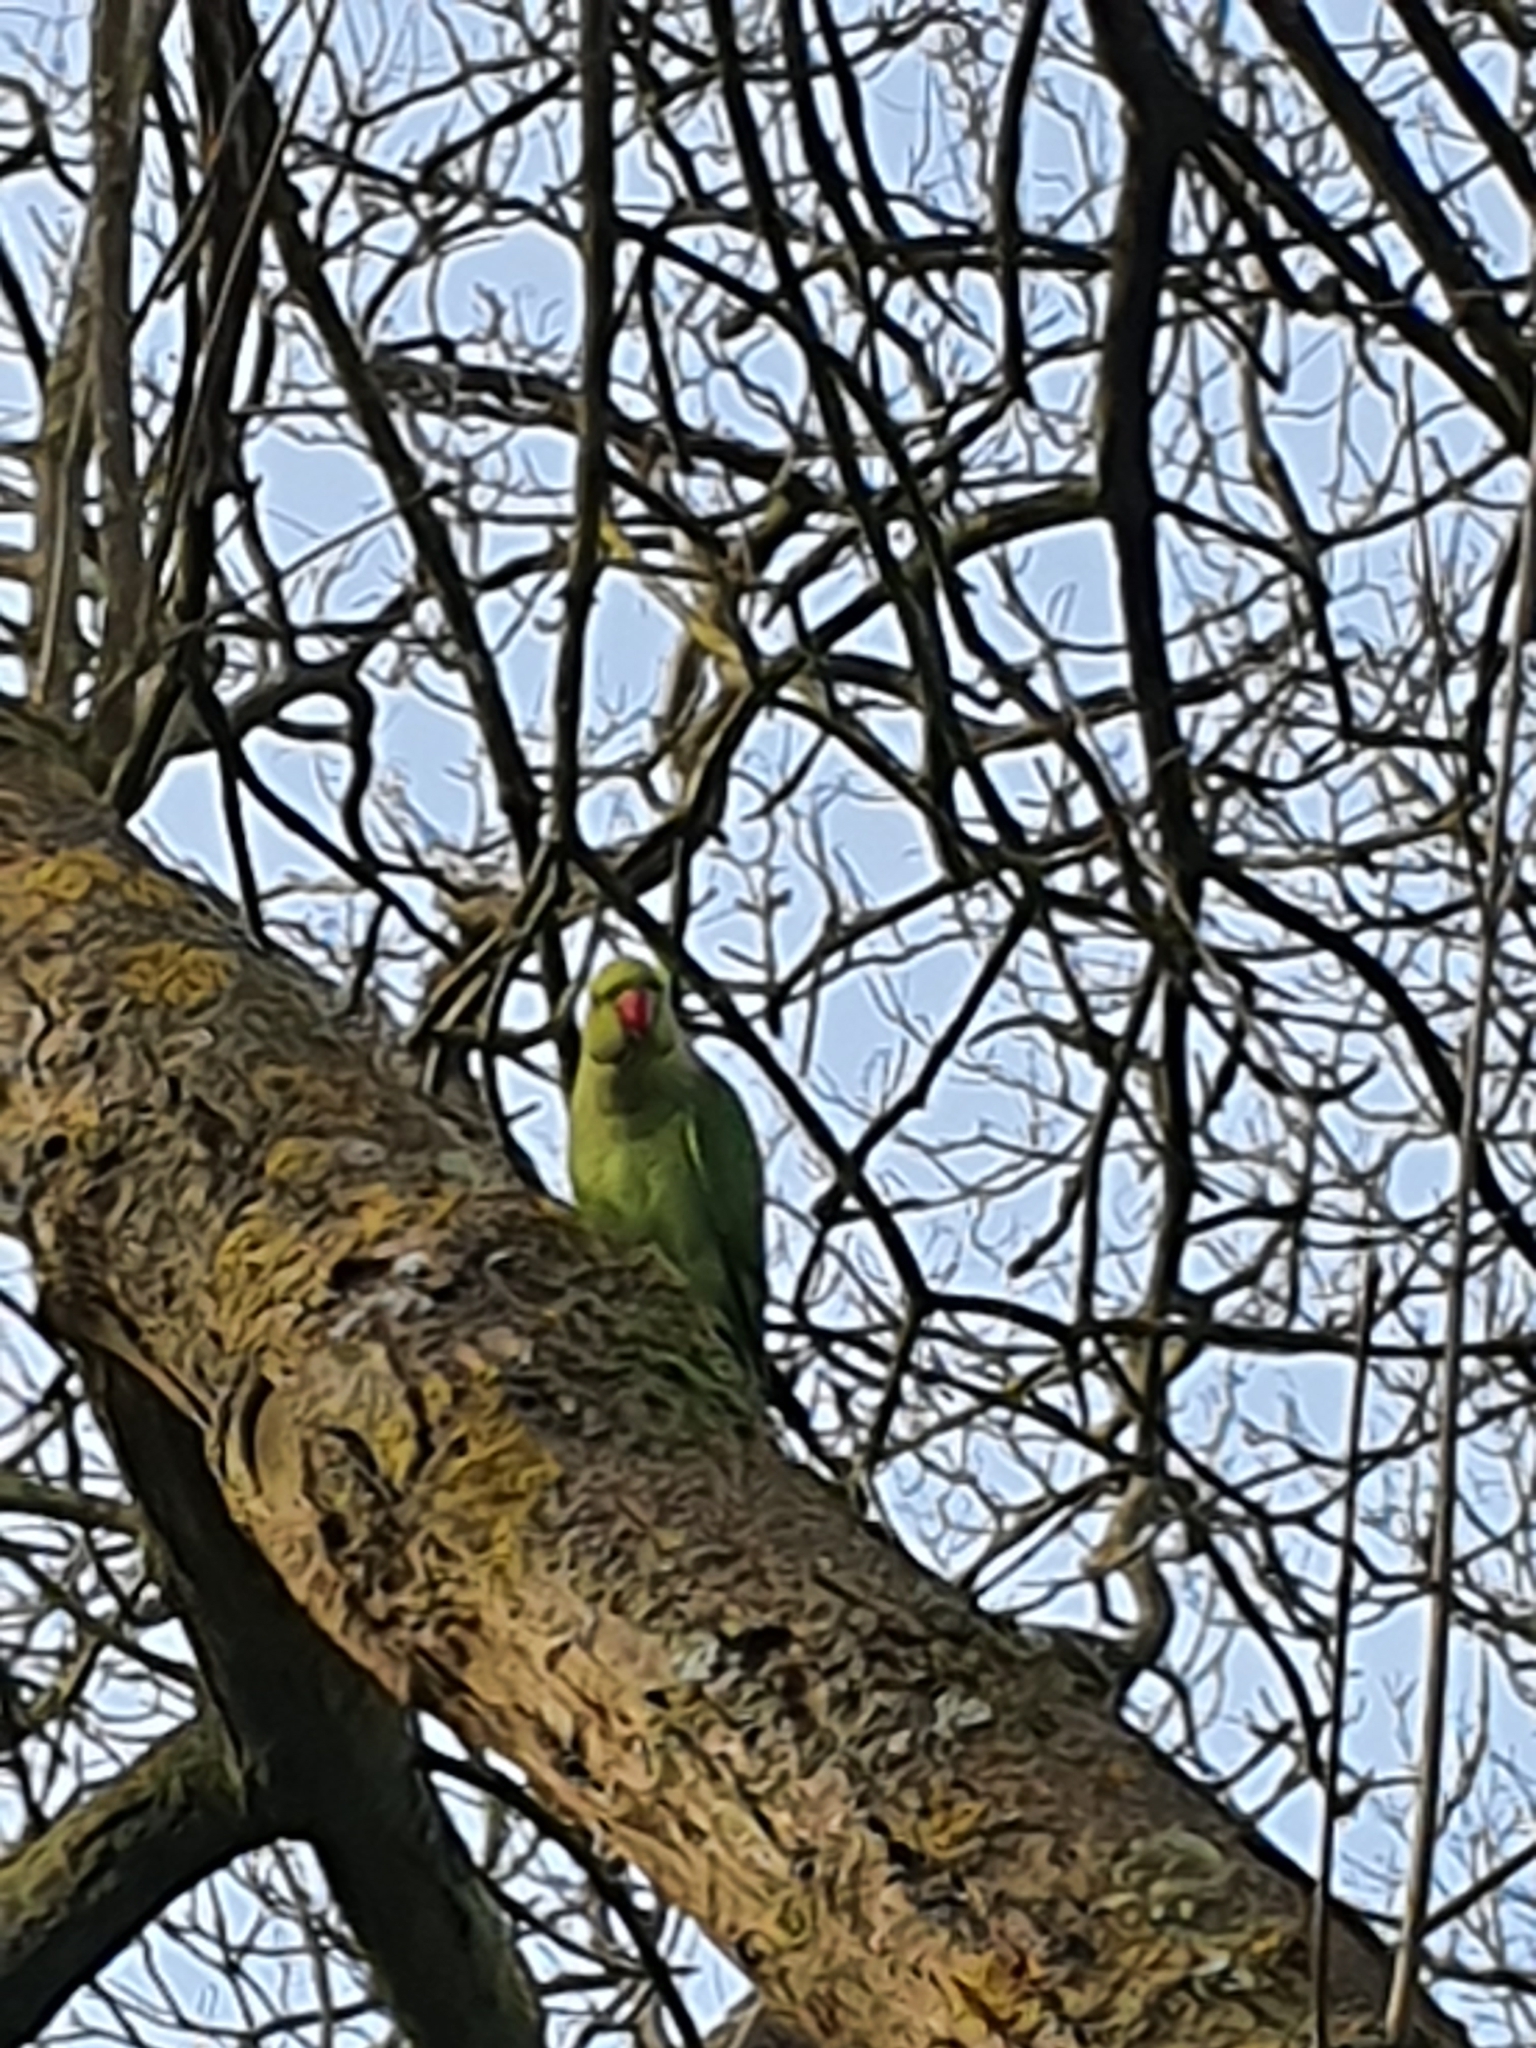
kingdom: Animalia
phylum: Chordata
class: Aves
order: Psittaciformes
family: Psittacidae
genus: Psittacula
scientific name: Psittacula krameri
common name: Rose-ringed parakeet
